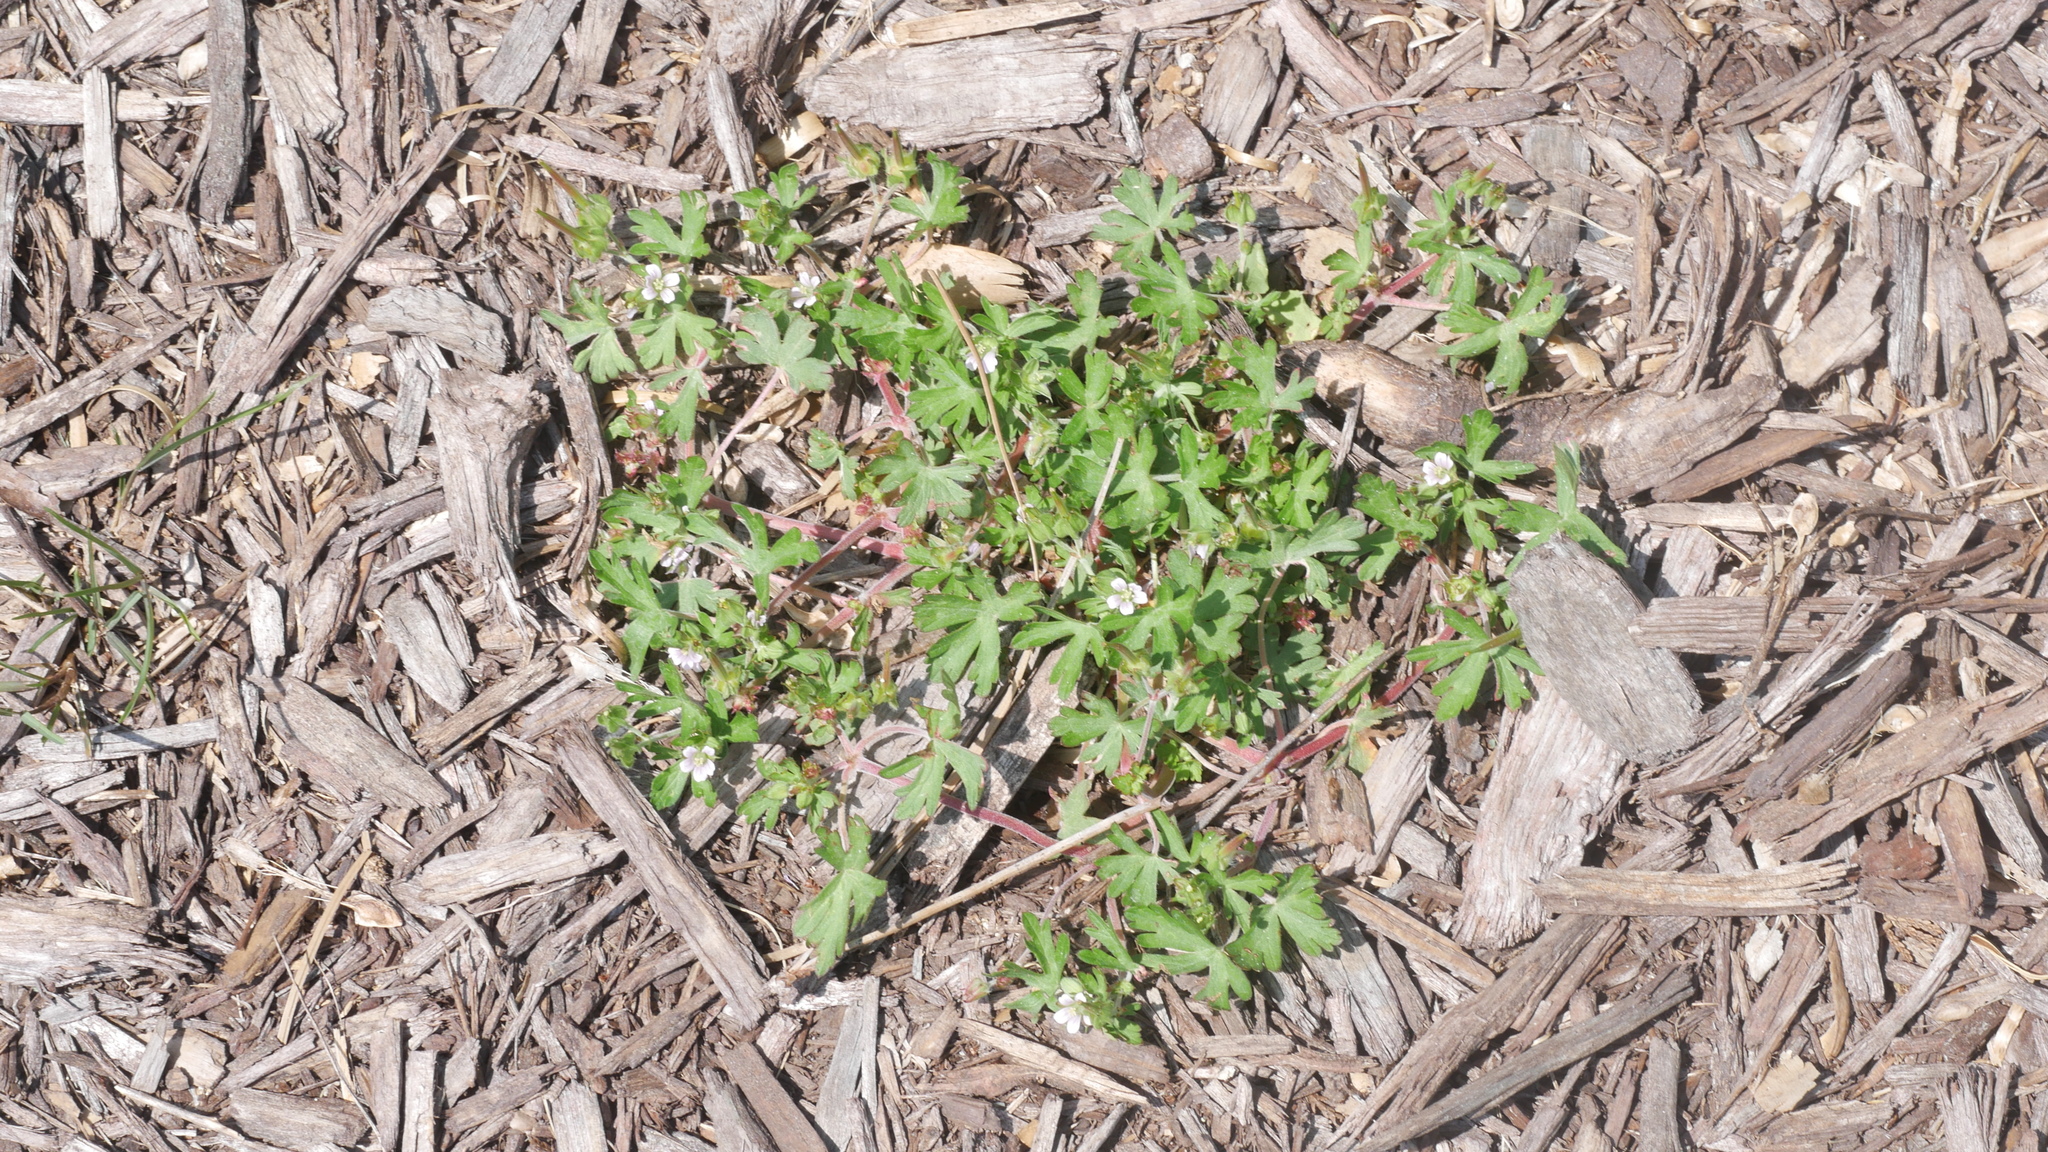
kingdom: Plantae
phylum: Tracheophyta
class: Magnoliopsida
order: Geraniales
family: Geraniaceae
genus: Geranium
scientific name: Geranium carolinianum
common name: Carolina crane's-bill
